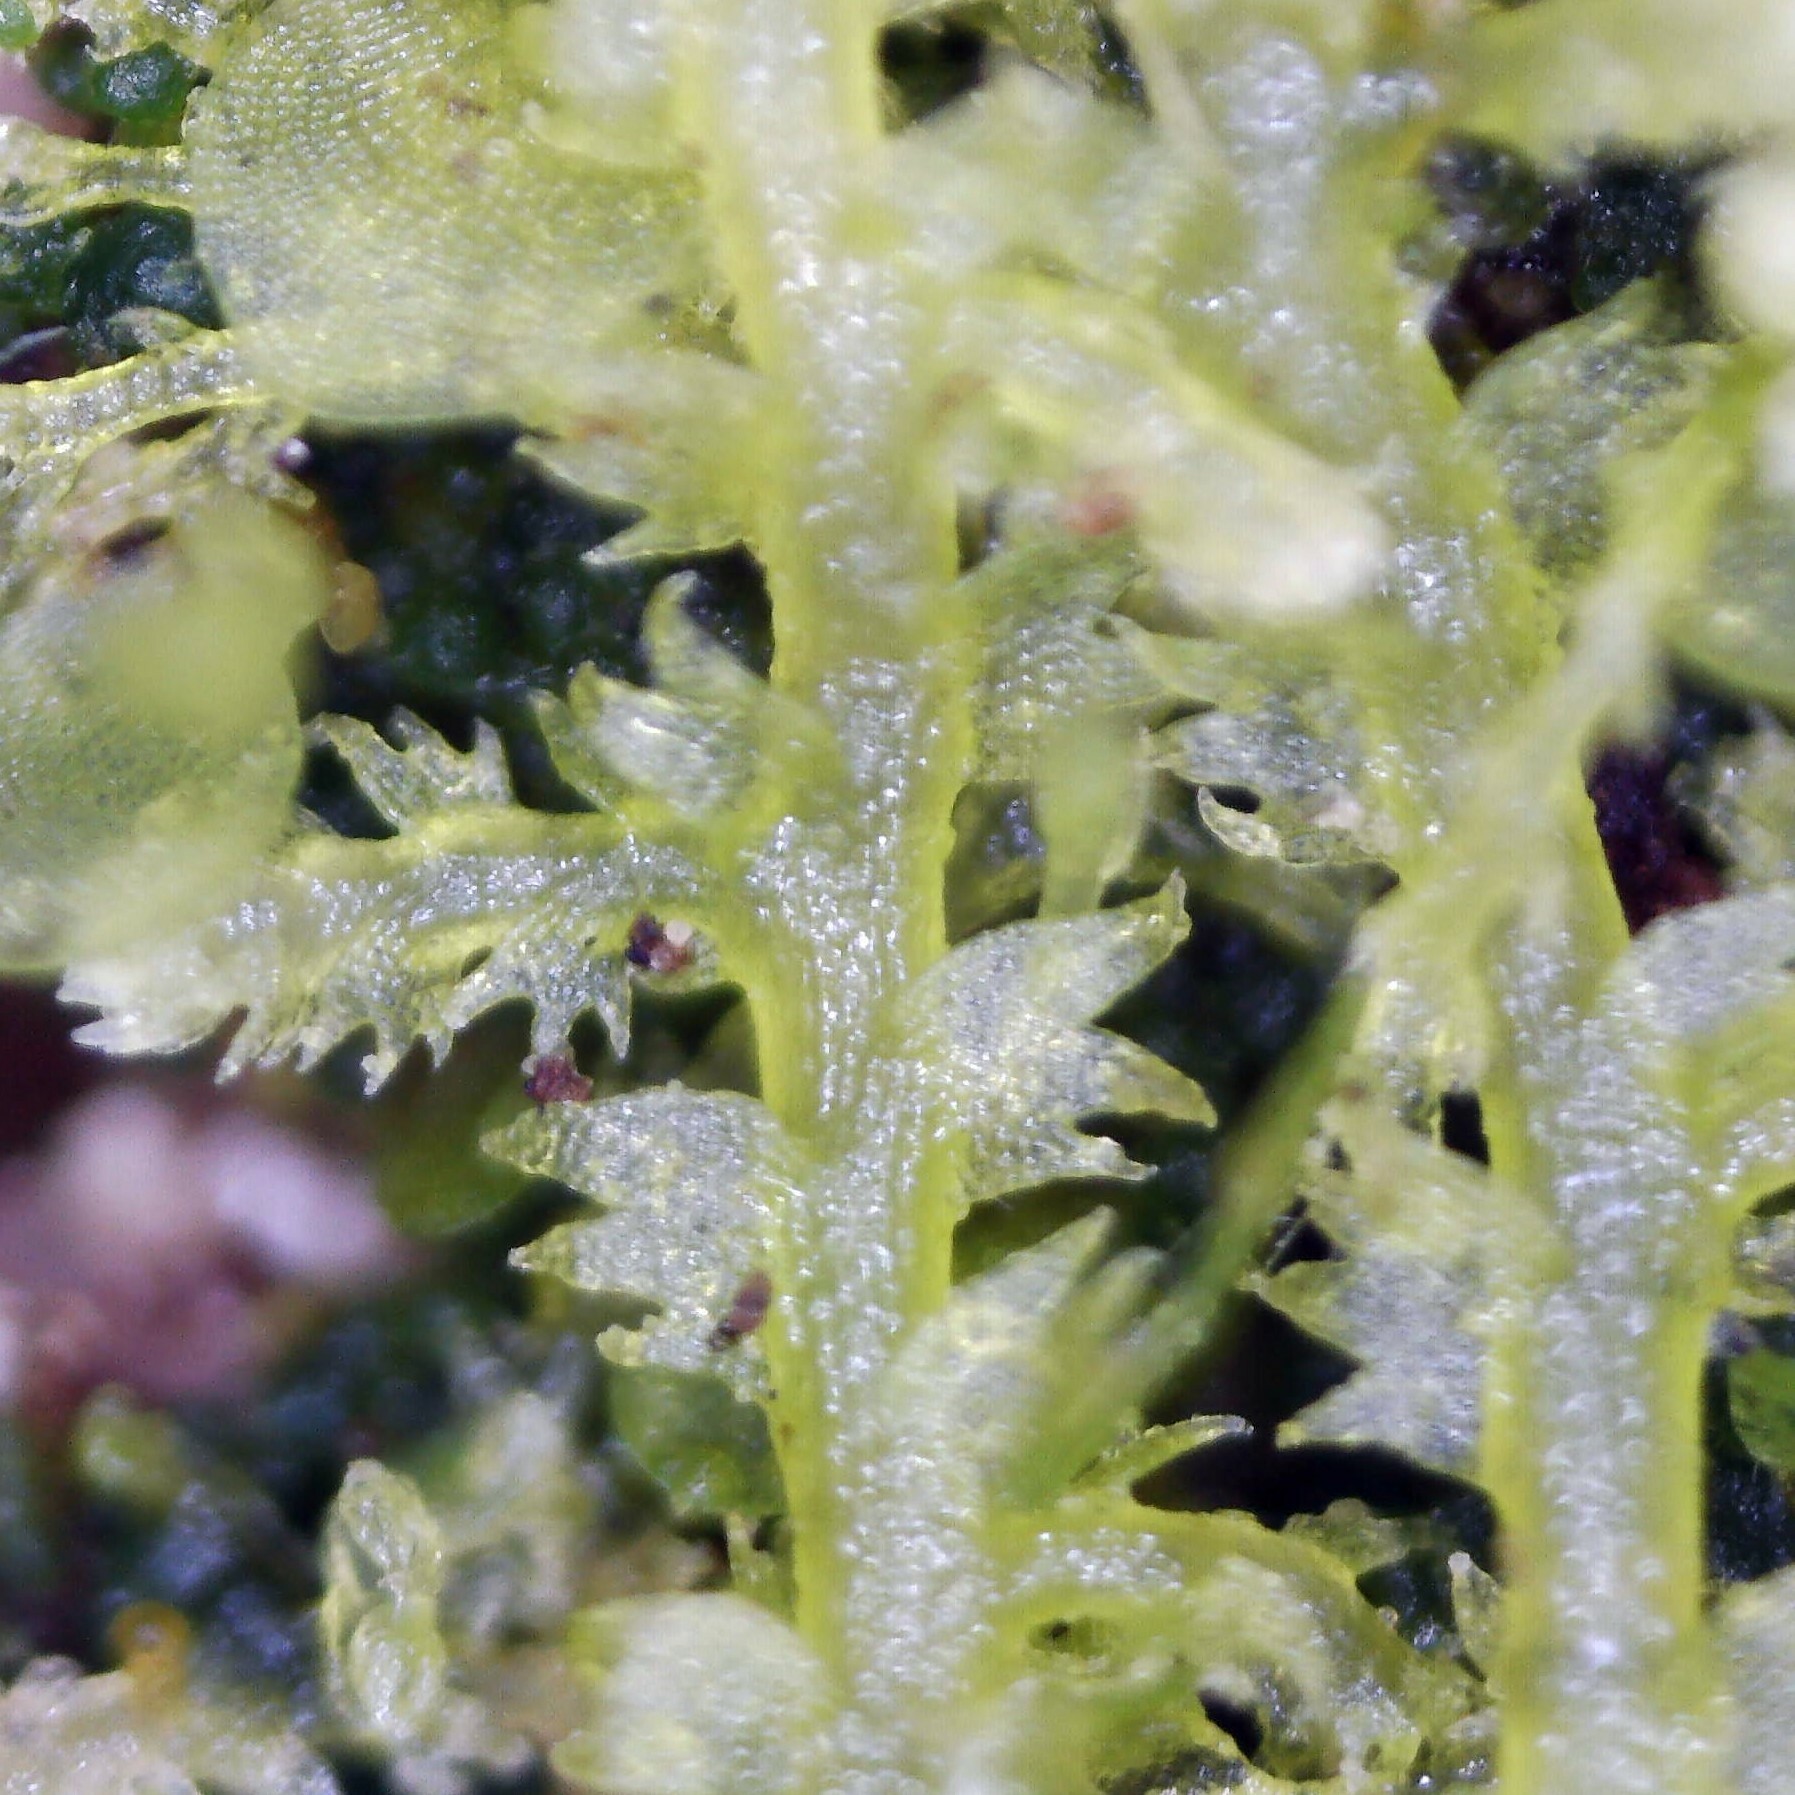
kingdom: Plantae
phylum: Marchantiophyta
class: Jungermanniopsida
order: Jungermanniales
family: Lepidoziaceae
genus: Lepidozia
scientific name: Lepidozia reptans
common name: Creeping fingerwort
